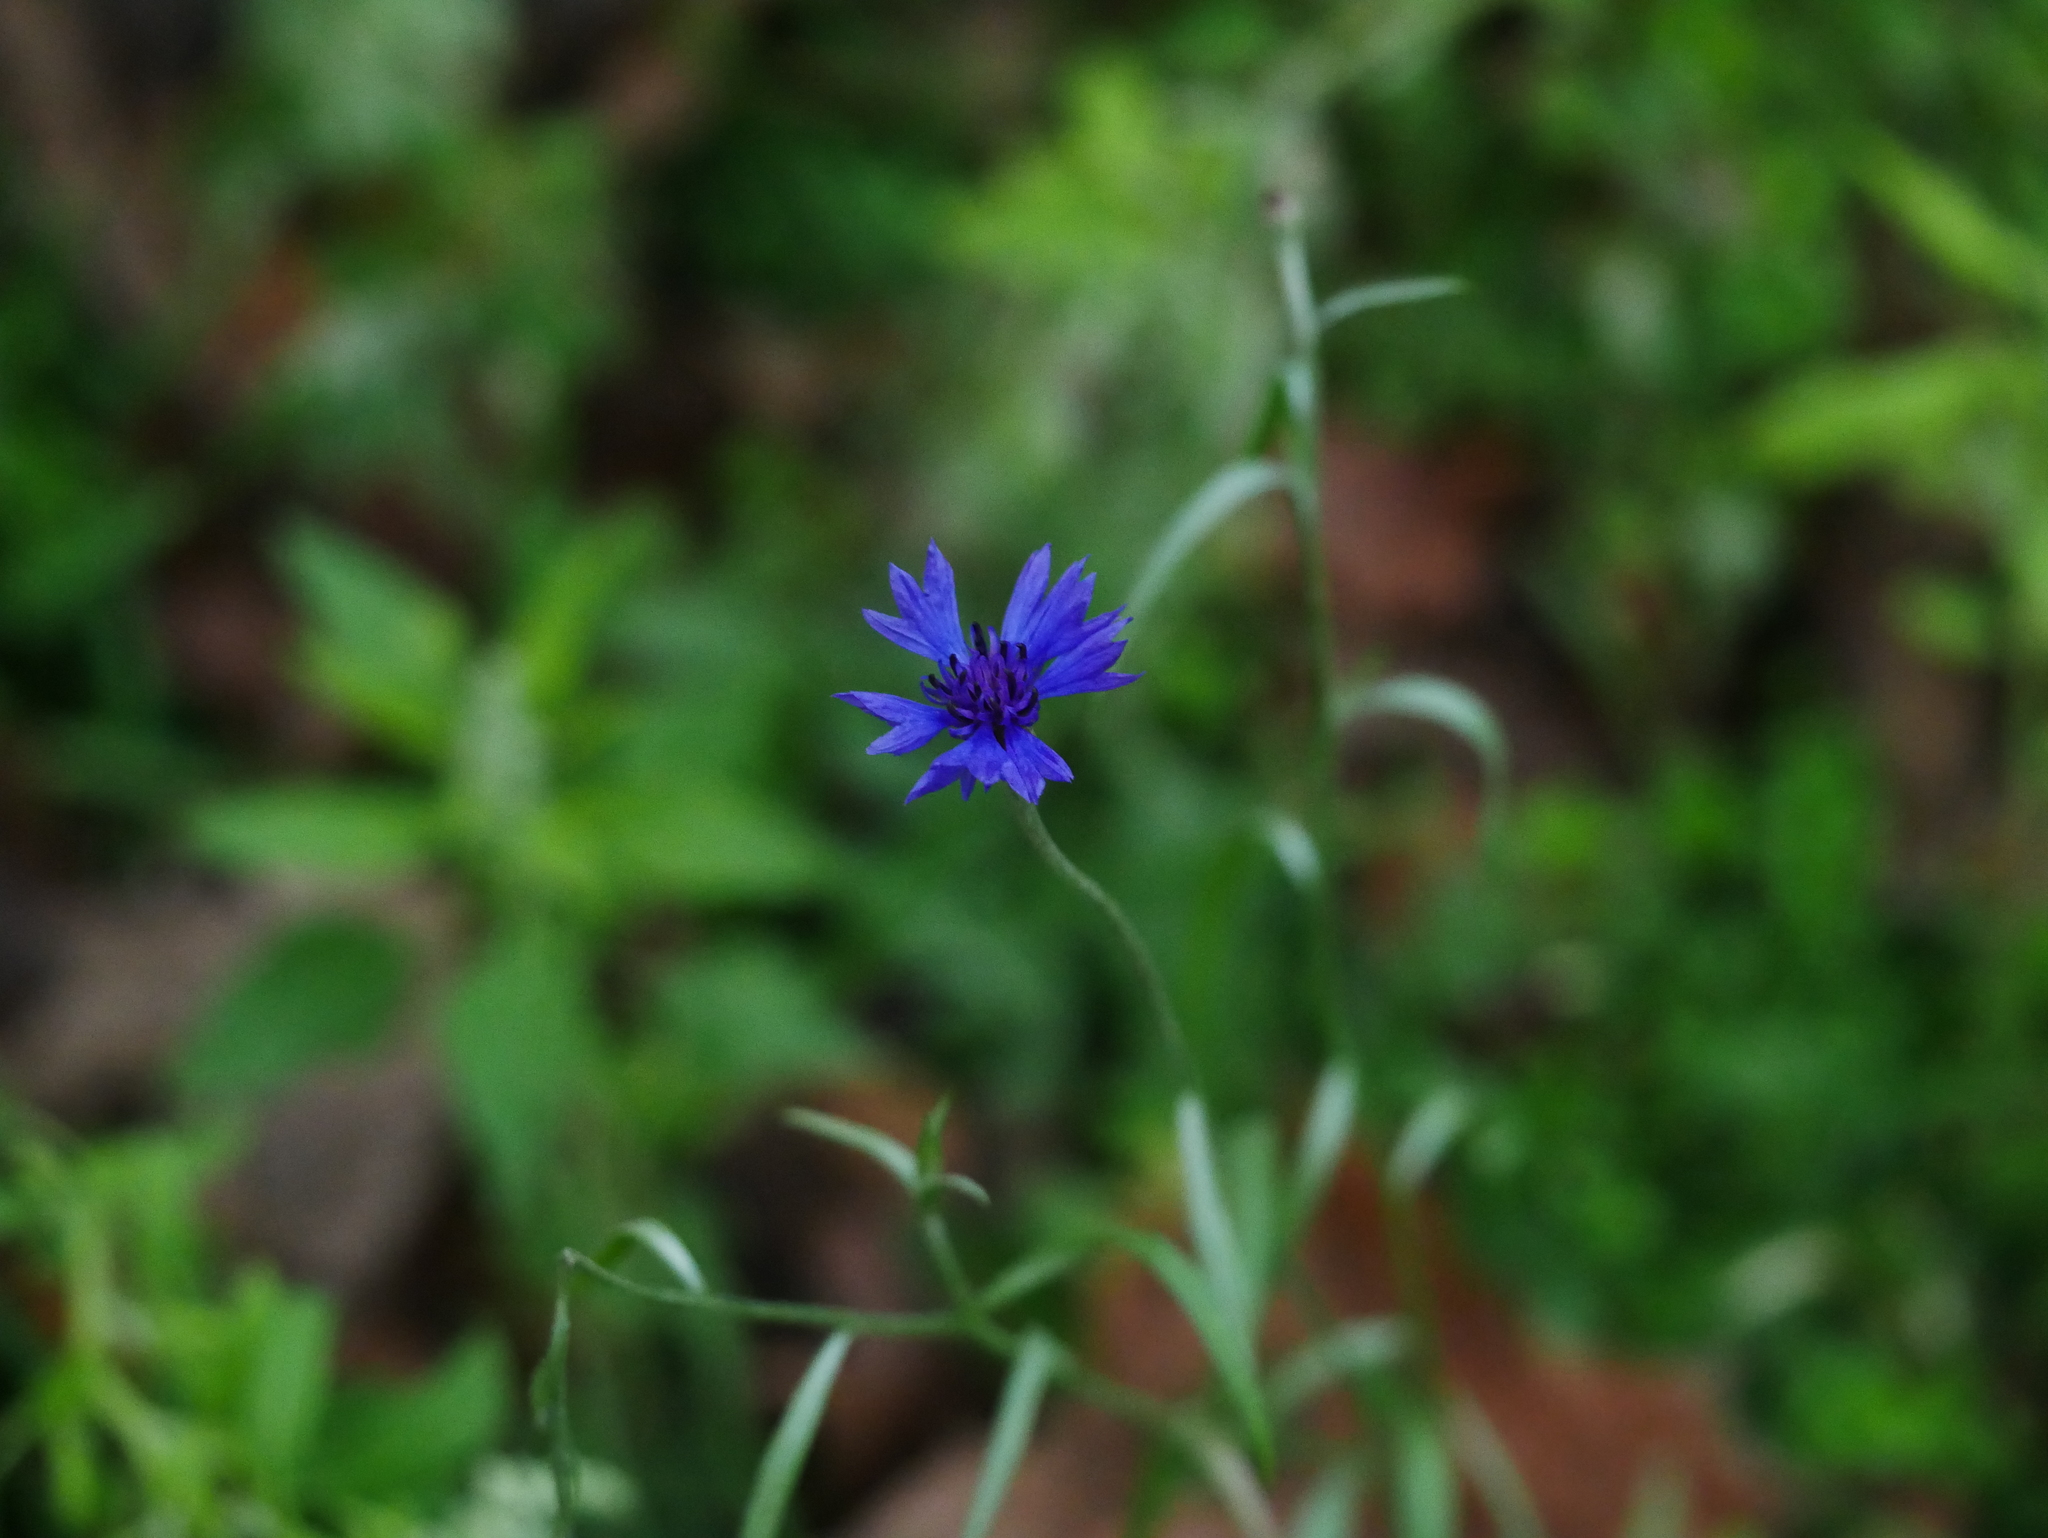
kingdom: Plantae
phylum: Tracheophyta
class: Magnoliopsida
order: Asterales
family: Asteraceae
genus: Centaurea
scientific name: Centaurea cyanus
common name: Cornflower
